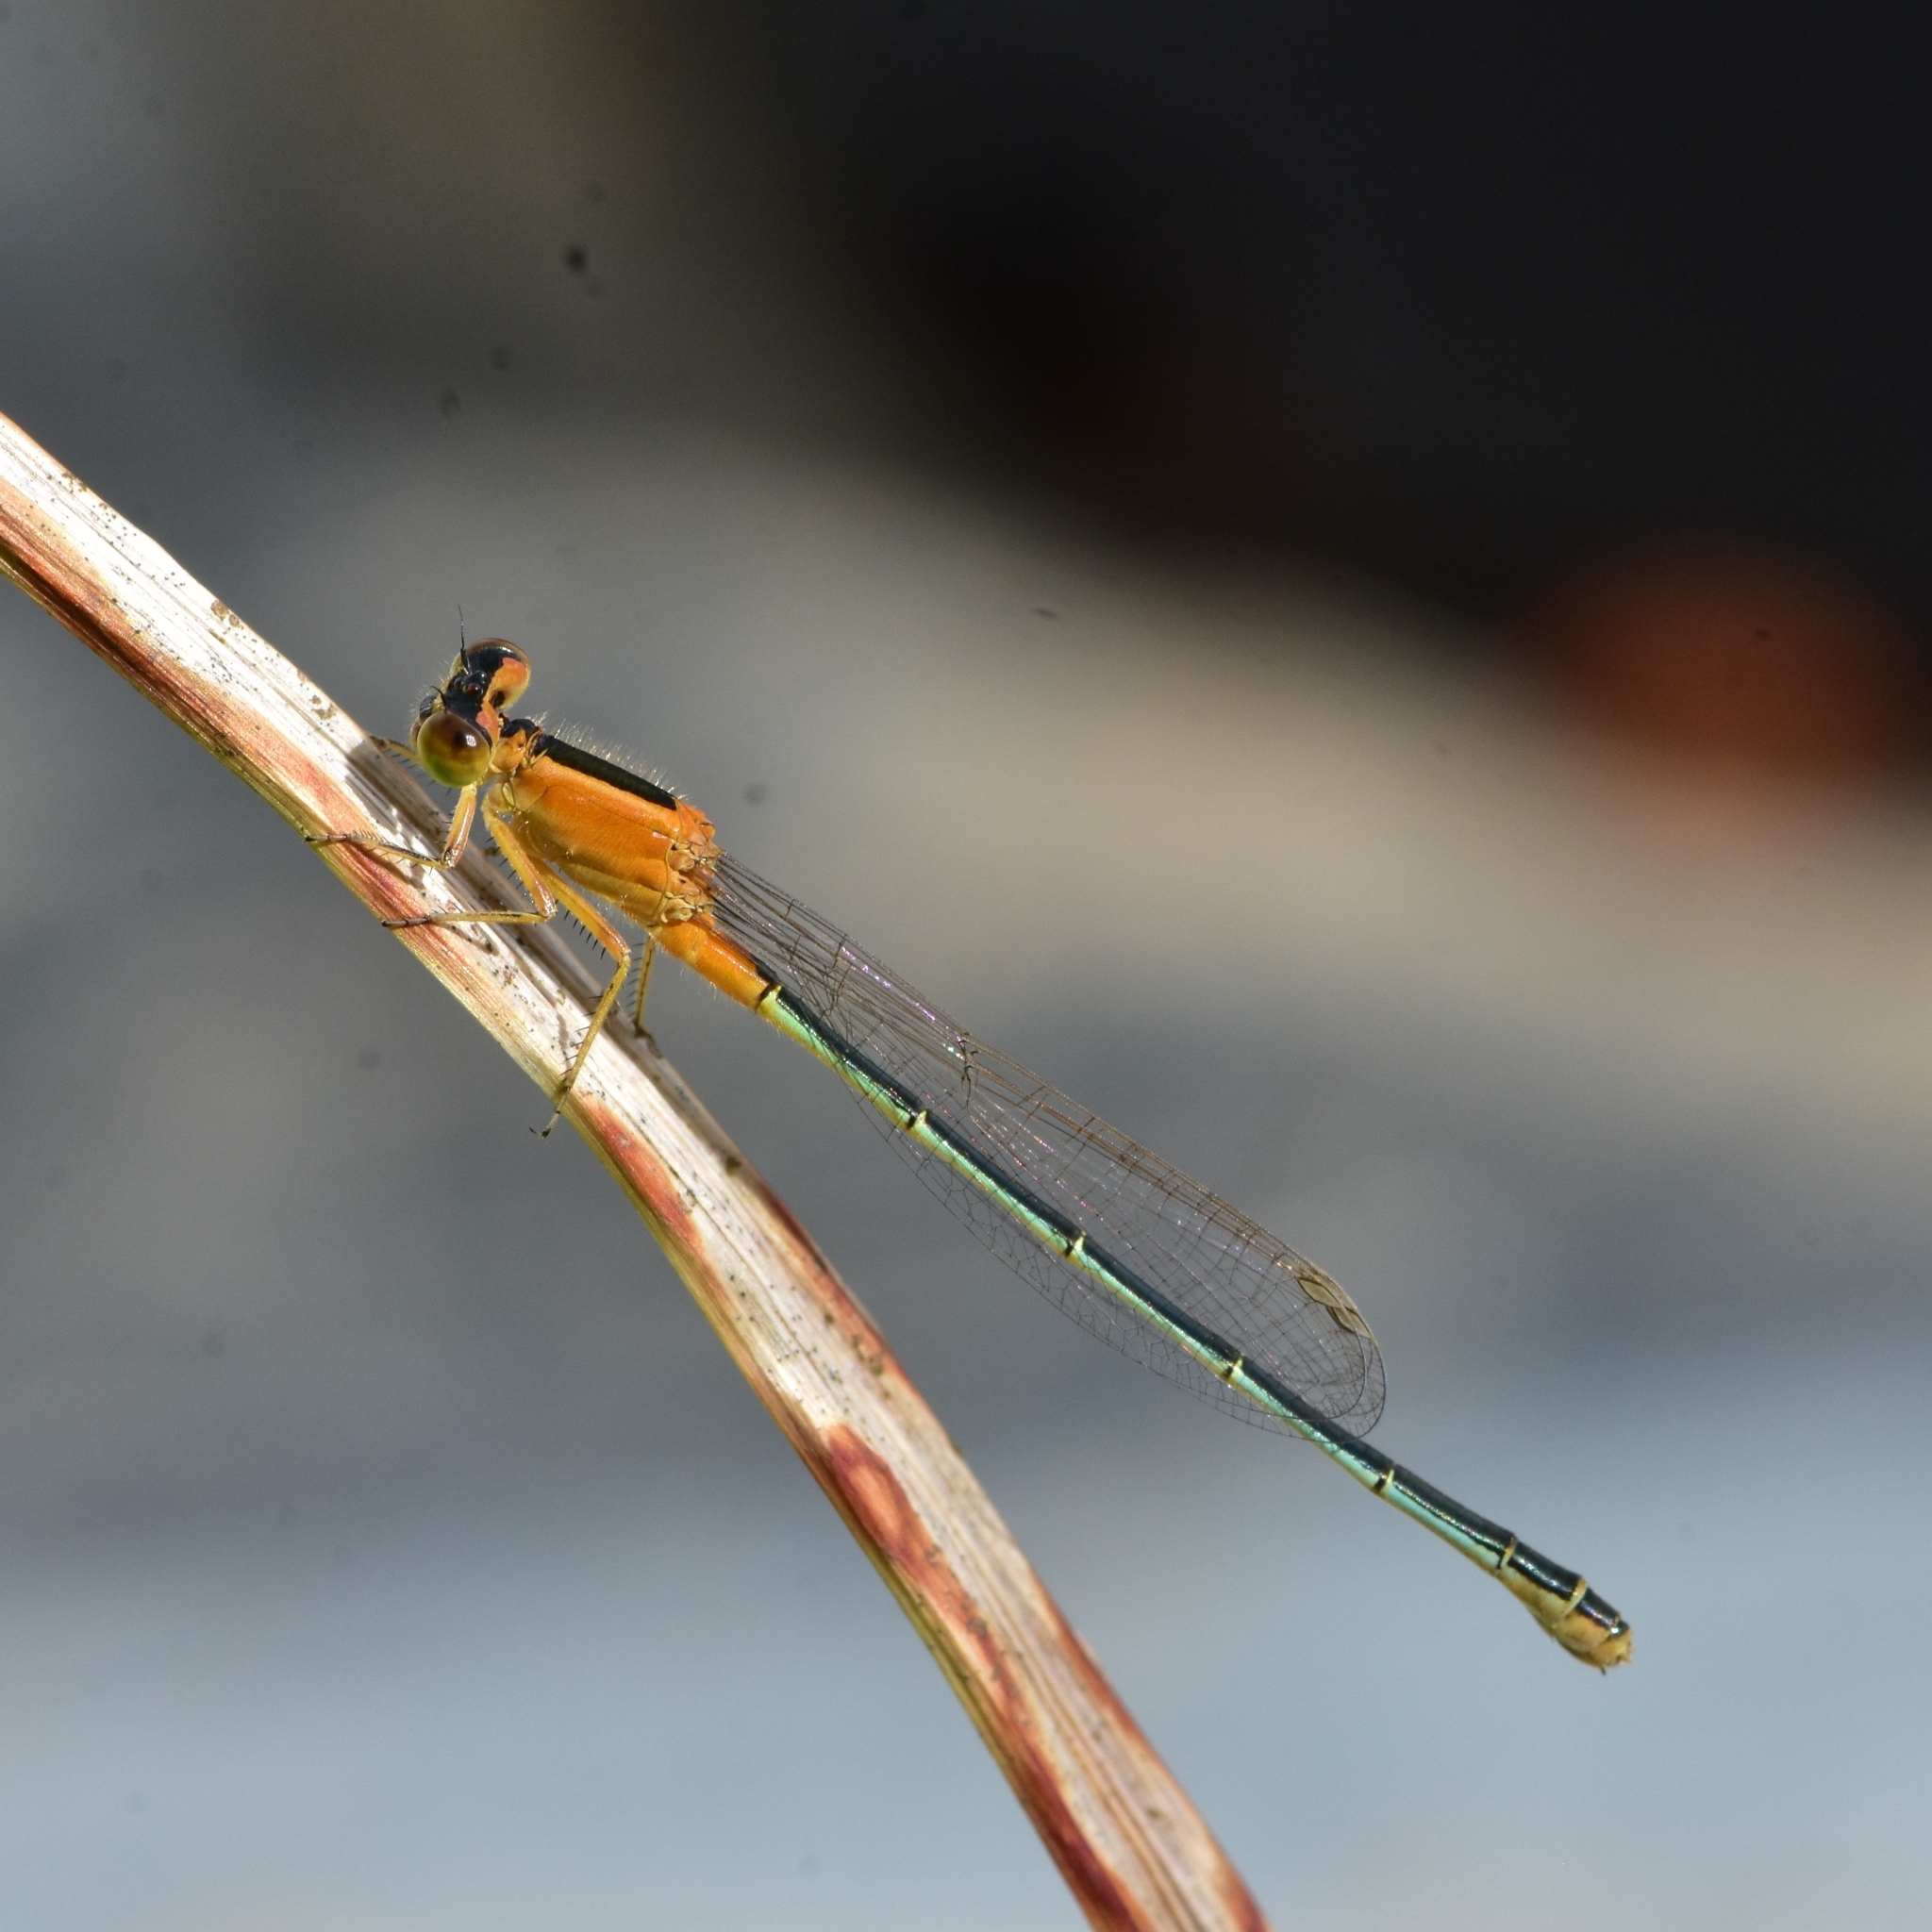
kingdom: Animalia
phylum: Arthropoda
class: Insecta
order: Odonata
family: Coenagrionidae
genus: Ischnura
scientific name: Ischnura senegalensis
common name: Tropical bluetail
